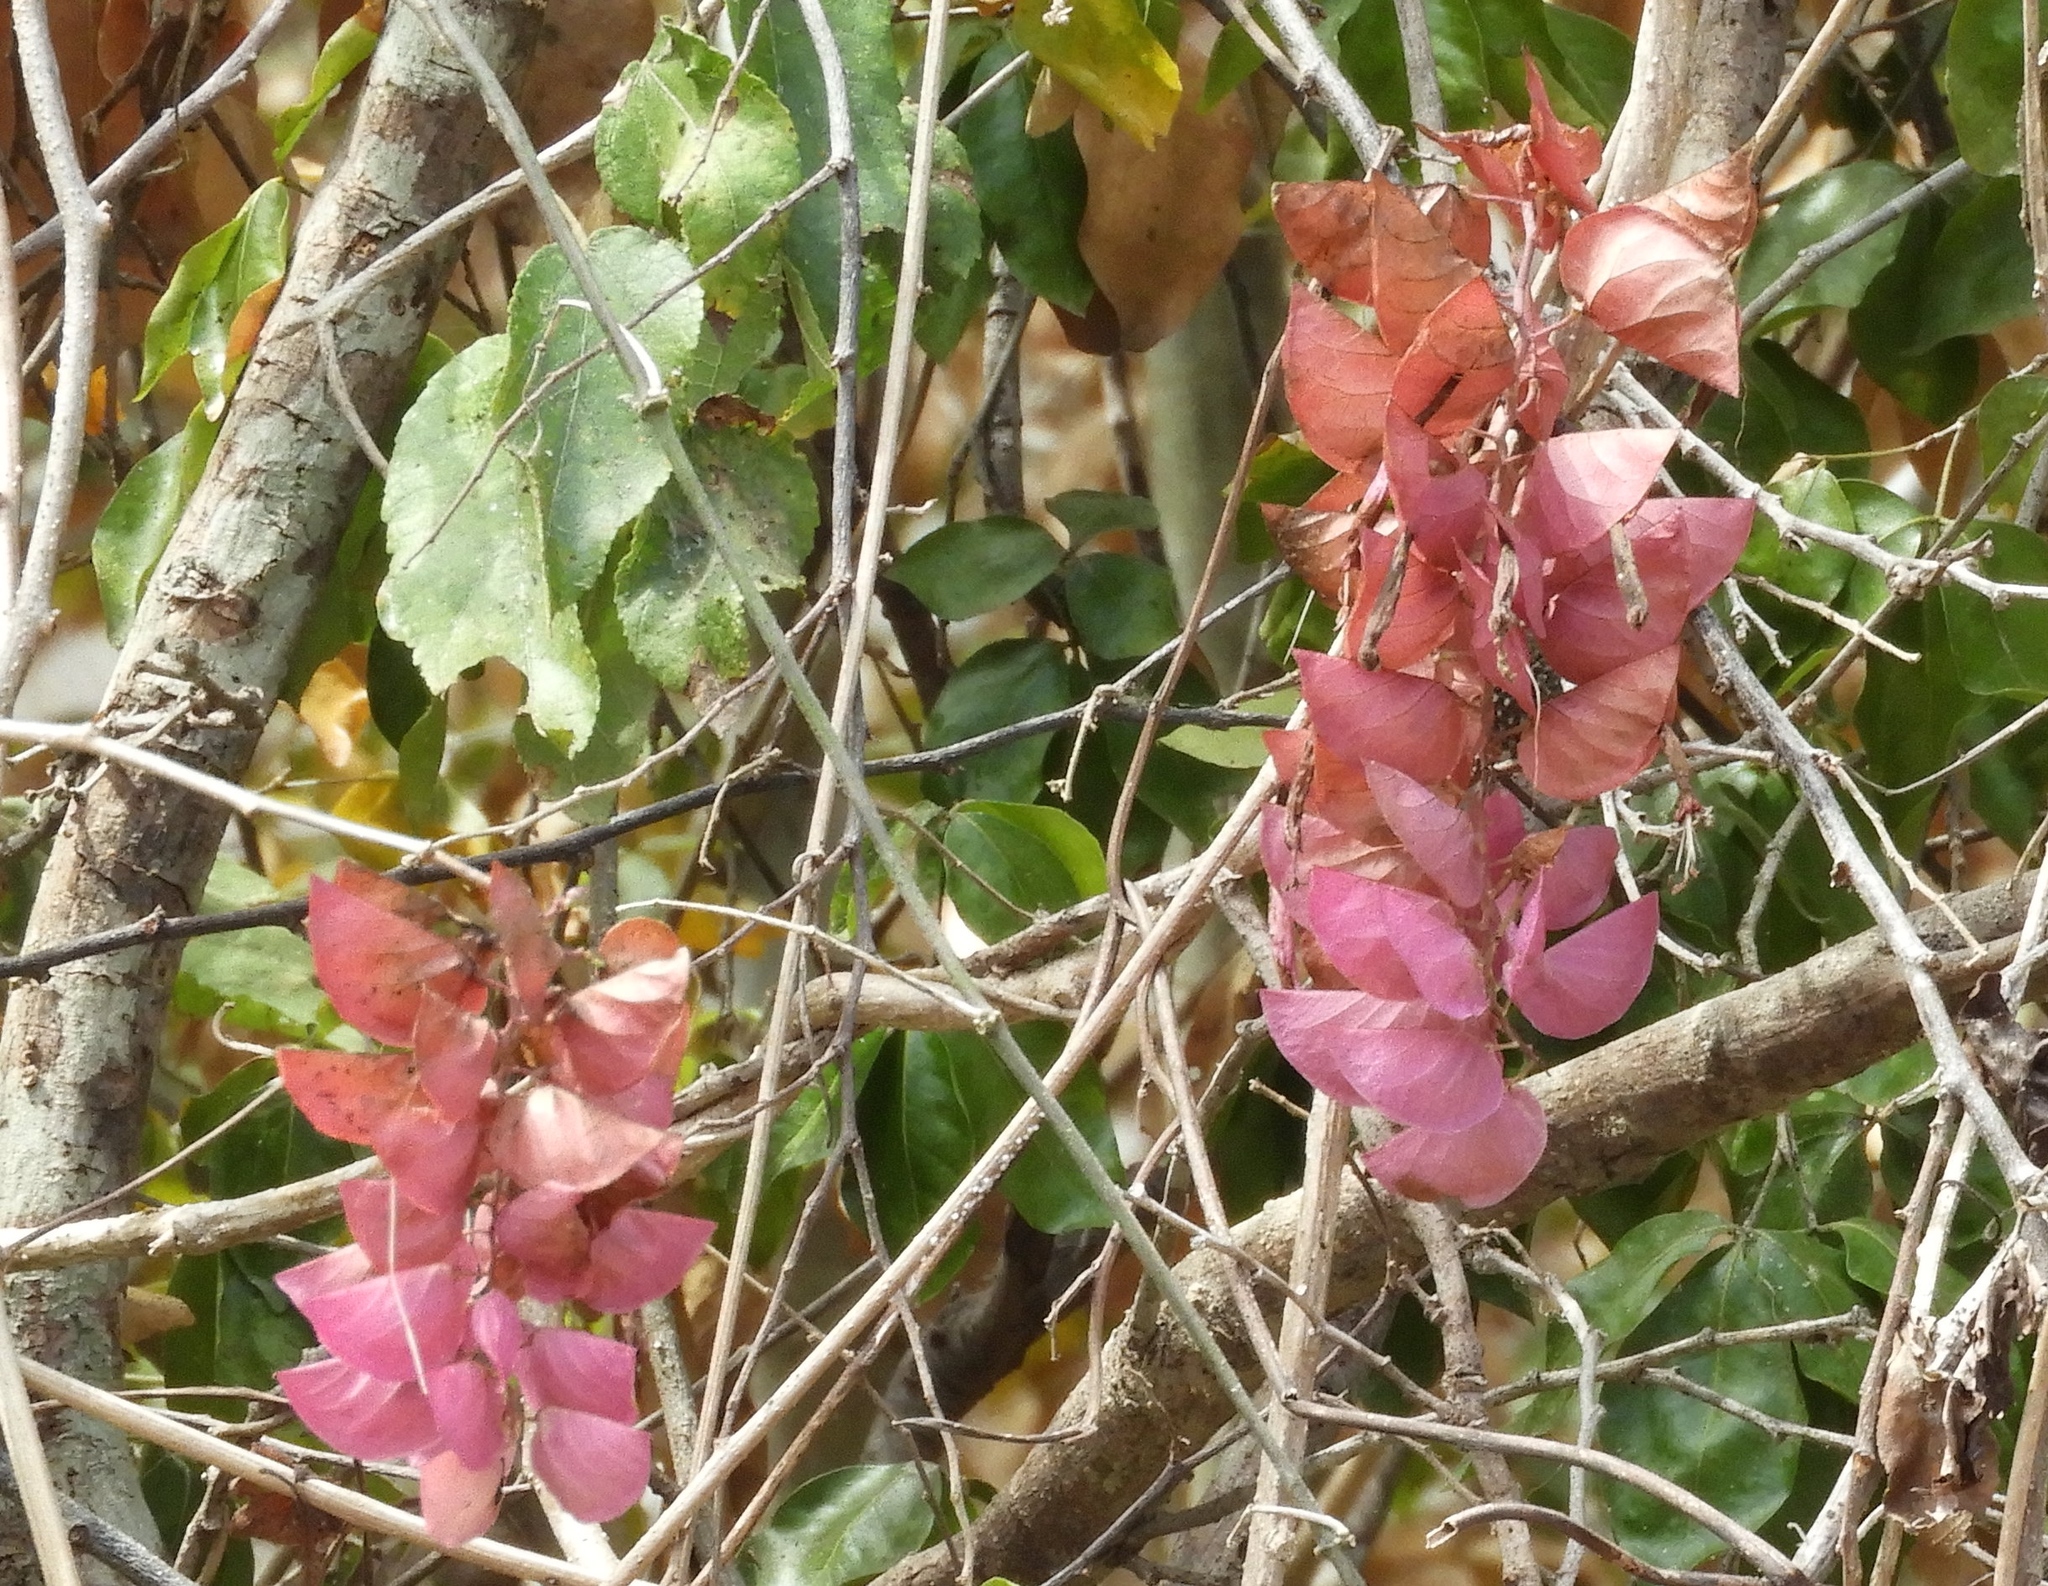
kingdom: Plantae
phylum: Tracheophyta
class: Magnoliopsida
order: Solanales
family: Convolvulaceae
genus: Ipomoea
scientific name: Ipomoea bracteata
